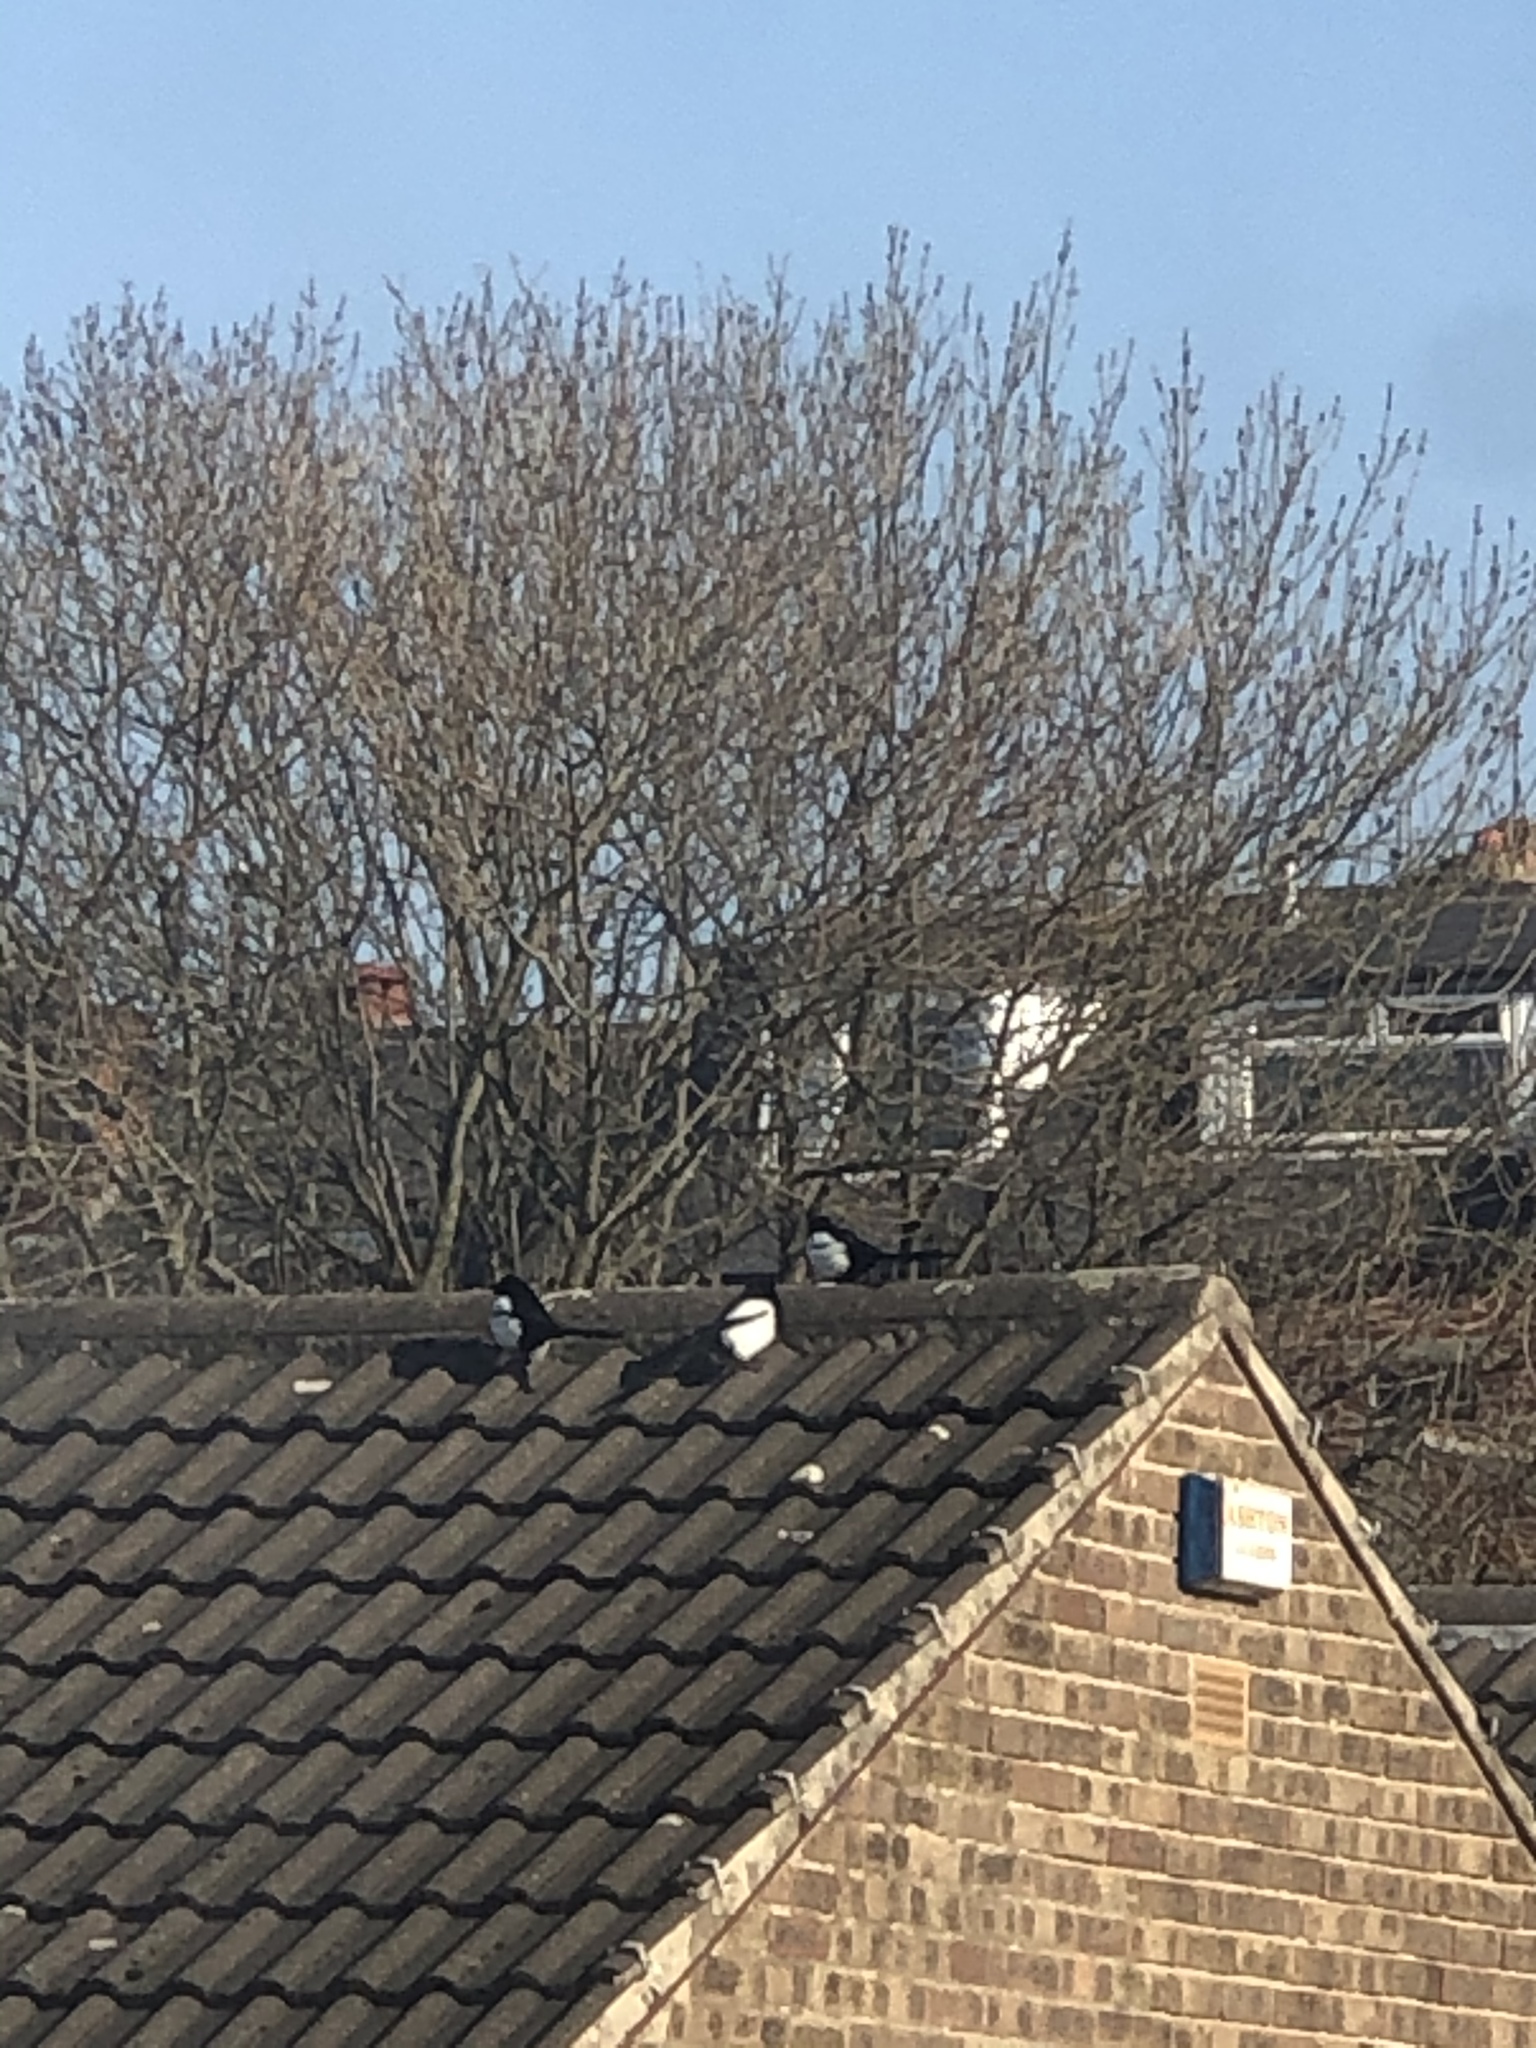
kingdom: Animalia
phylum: Chordata
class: Aves
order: Passeriformes
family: Corvidae
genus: Pica
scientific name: Pica pica
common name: Eurasian magpie
